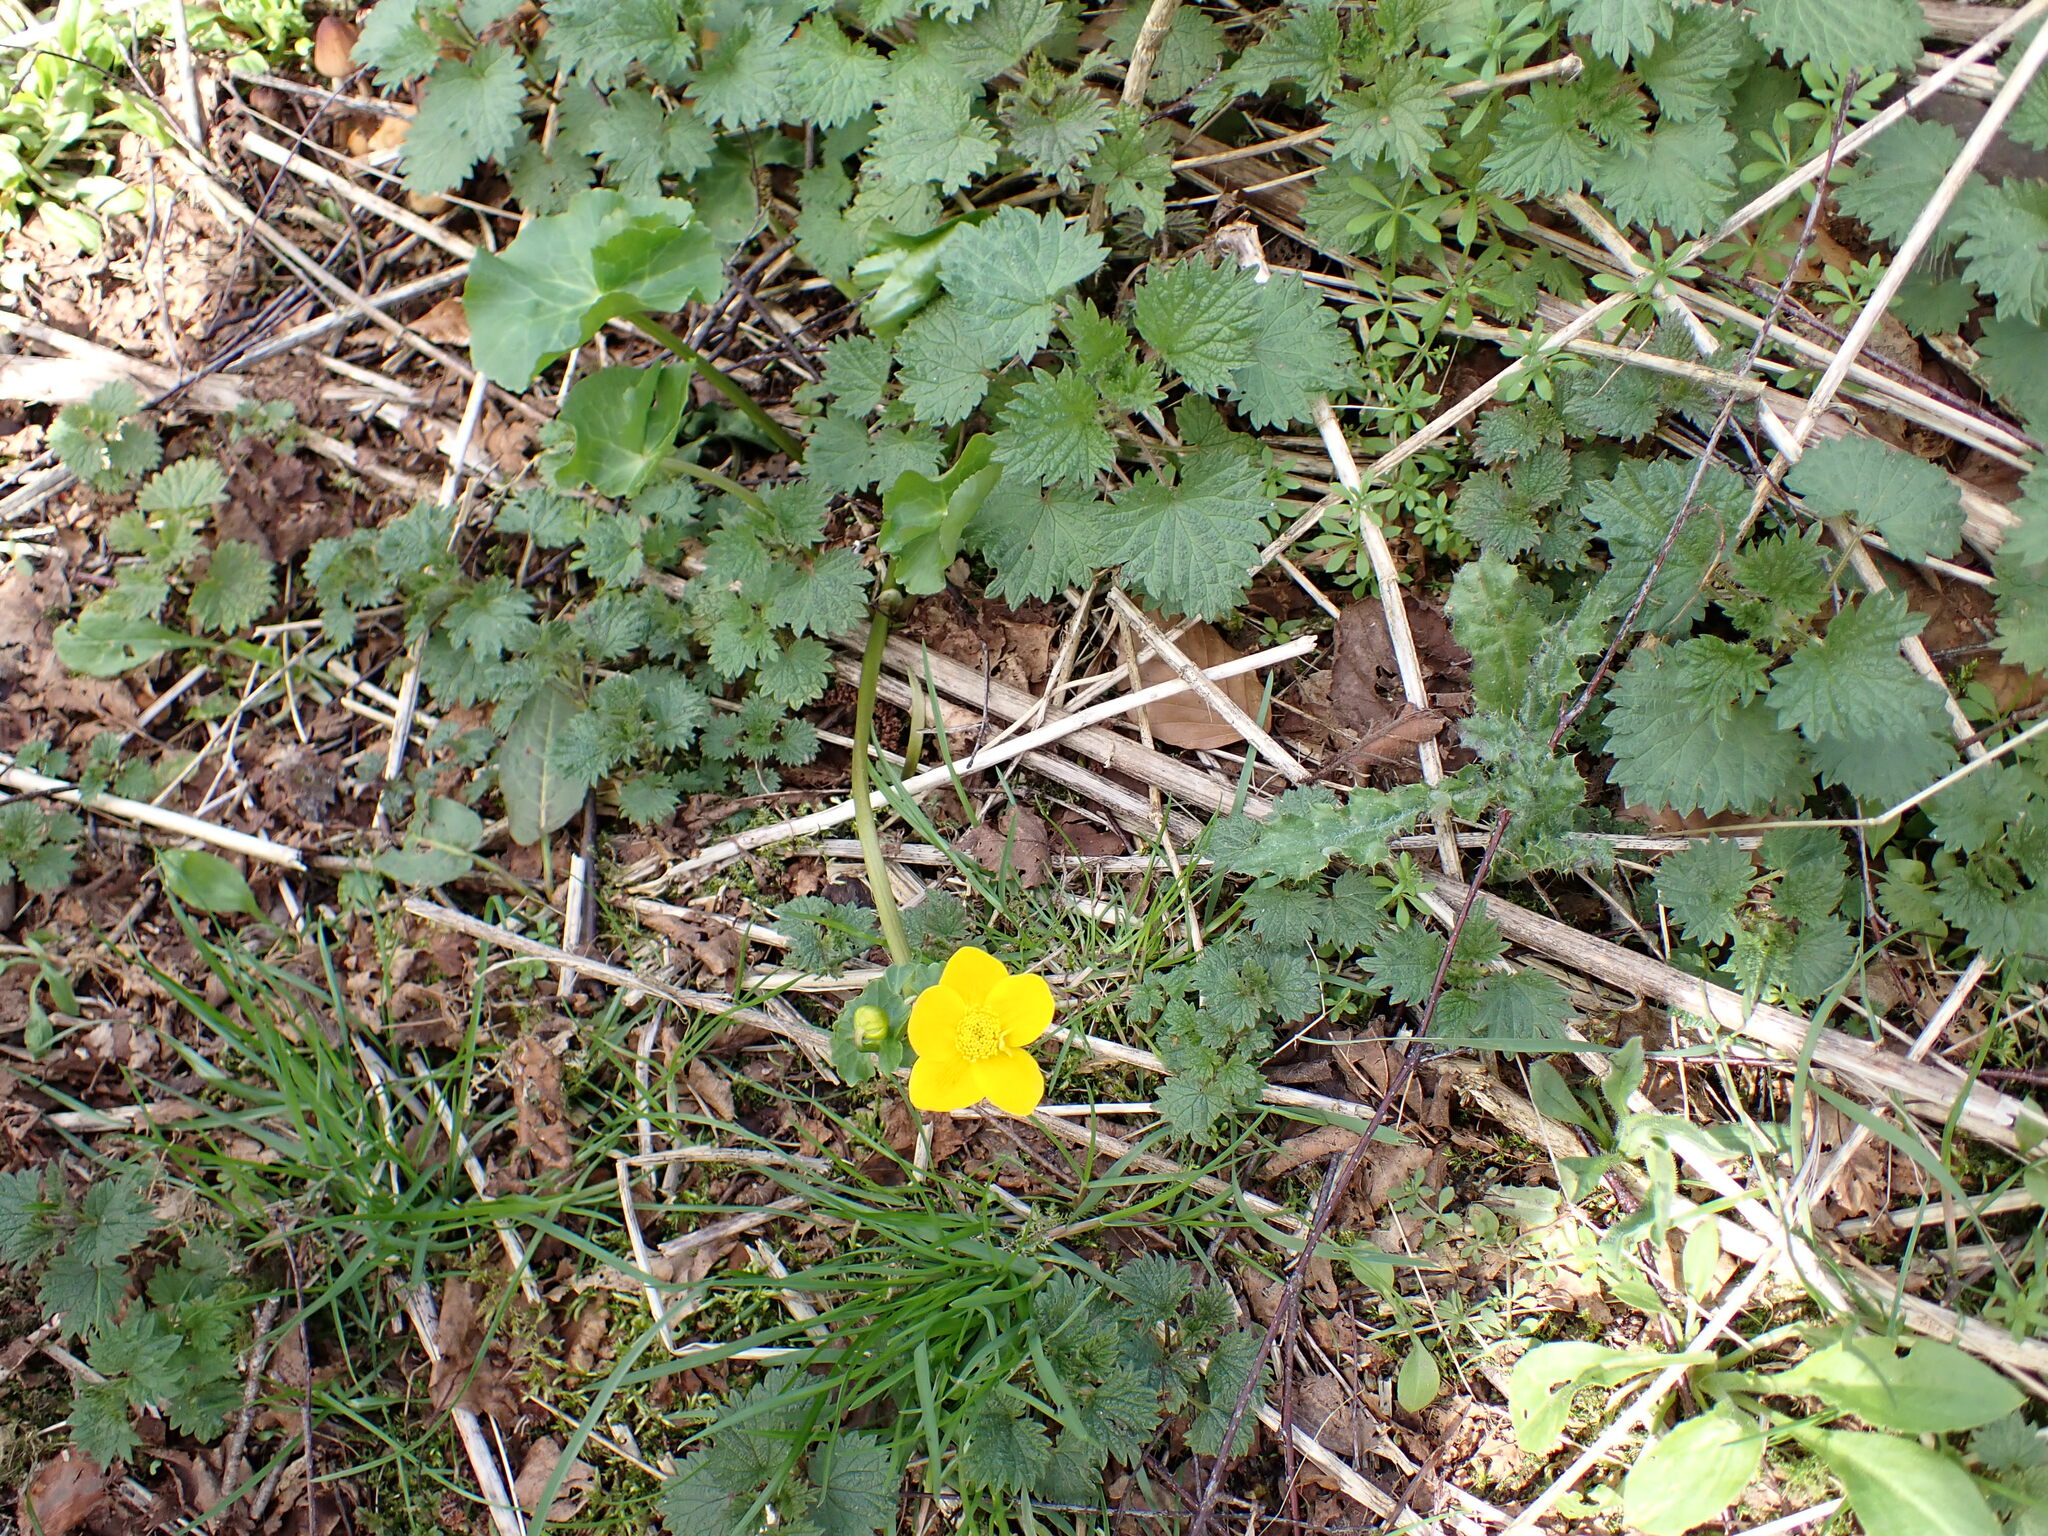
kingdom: Plantae
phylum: Tracheophyta
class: Magnoliopsida
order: Ranunculales
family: Ranunculaceae
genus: Caltha
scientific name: Caltha palustris
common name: Marsh marigold
